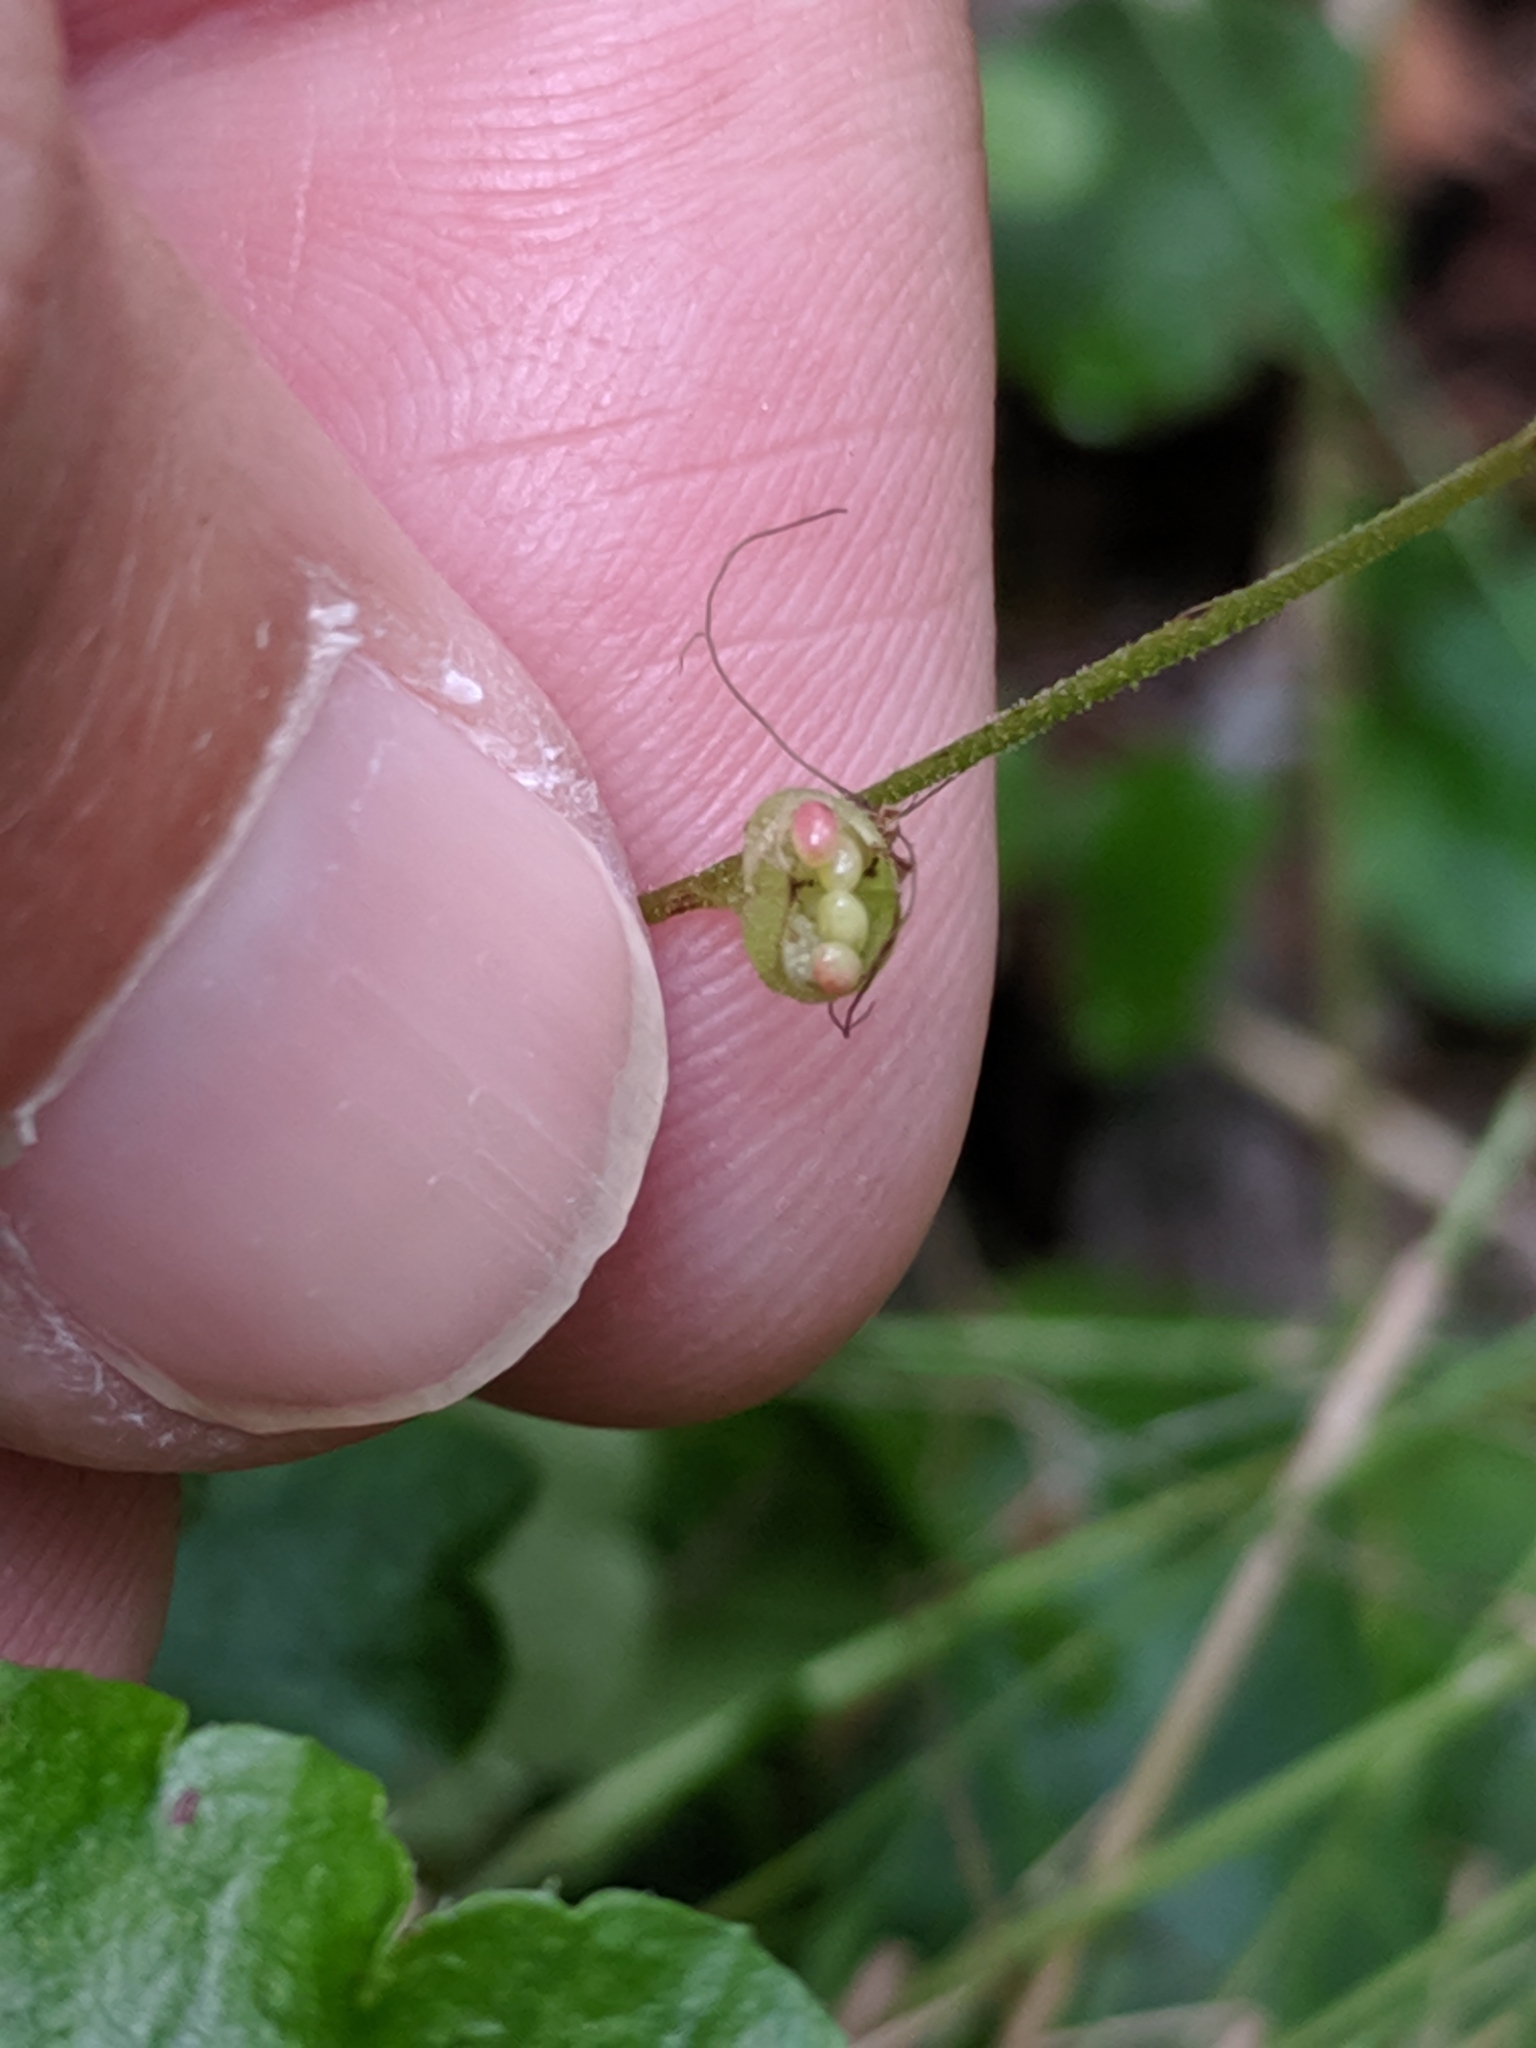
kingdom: Plantae
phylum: Tracheophyta
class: Magnoliopsida
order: Saxifragales
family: Saxifragaceae
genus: Mitella
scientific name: Mitella nuda
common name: Bare-stemmed bishop's-cap
